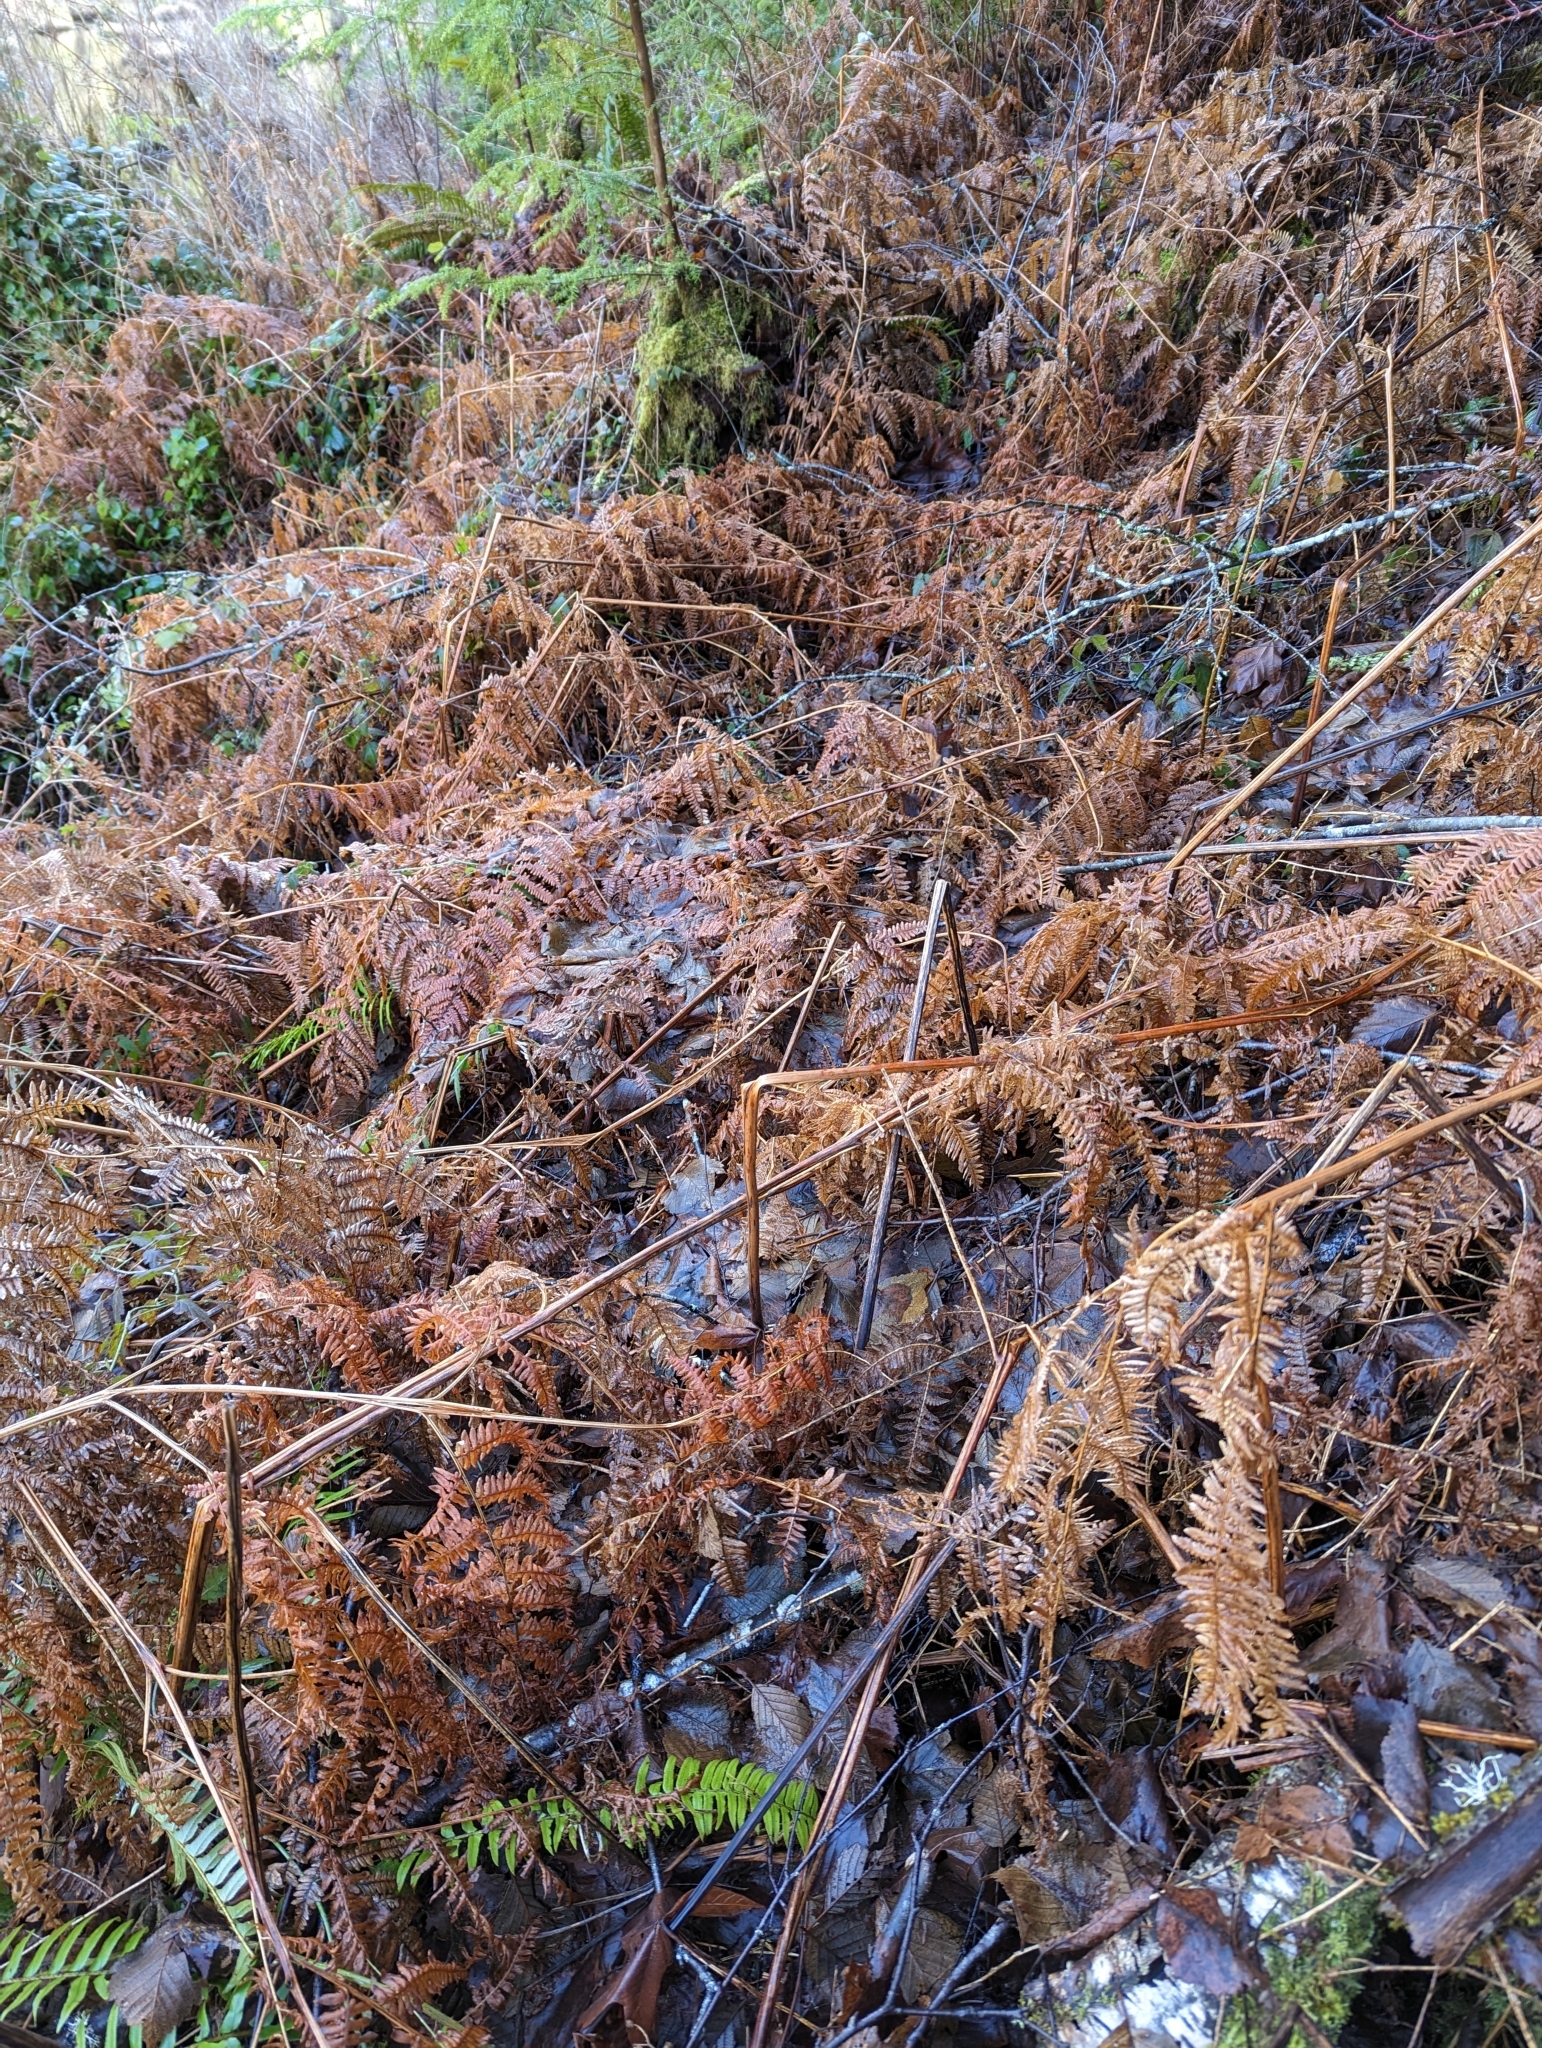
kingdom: Plantae
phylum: Tracheophyta
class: Polypodiopsida
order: Polypodiales
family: Dennstaedtiaceae
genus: Pteridium
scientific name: Pteridium aquilinum
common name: Bracken
